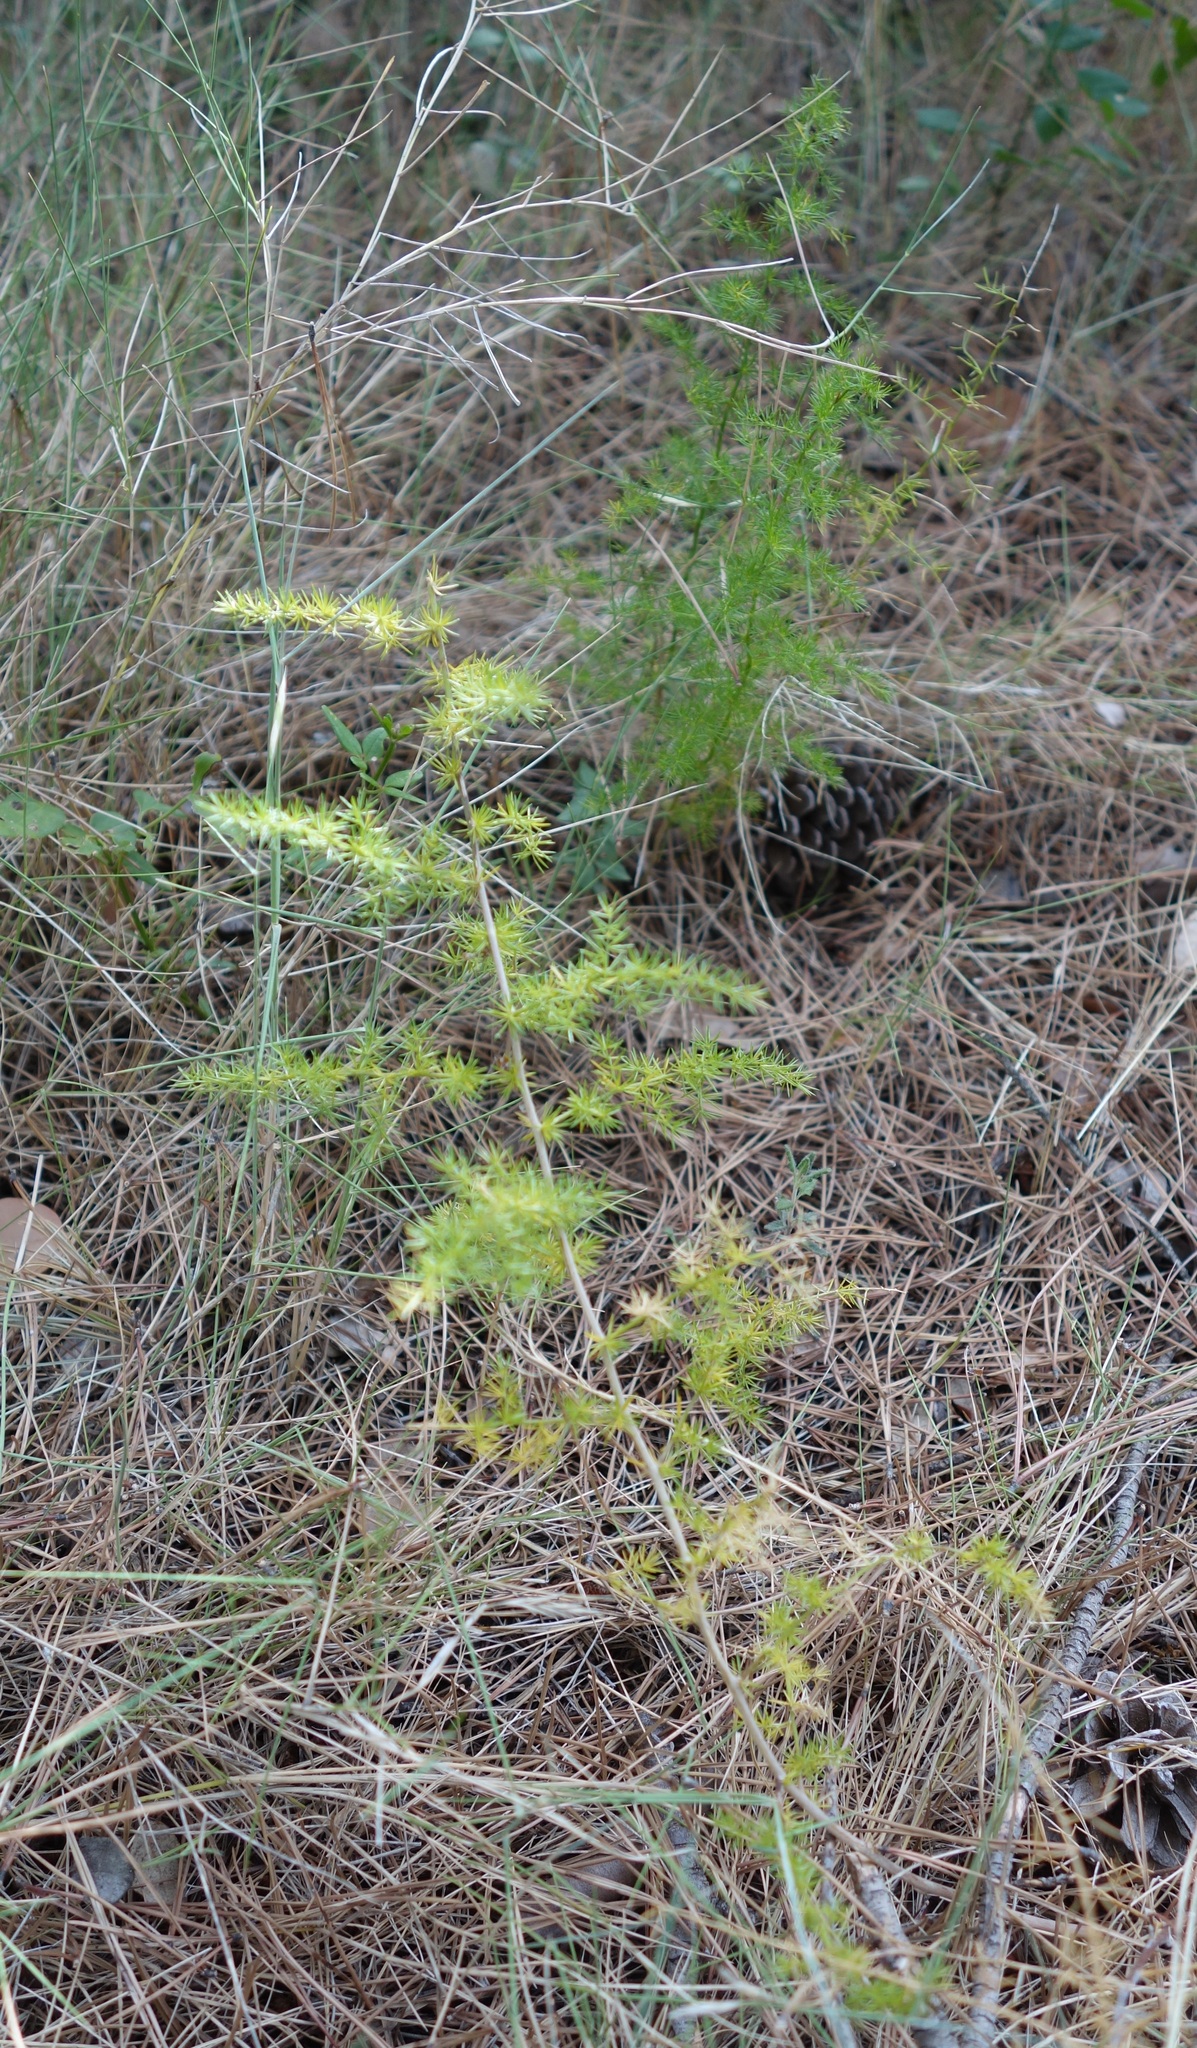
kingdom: Plantae
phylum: Tracheophyta
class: Liliopsida
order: Asparagales
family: Asparagaceae
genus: Asparagus
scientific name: Asparagus acutifolius
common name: Wild asparagus
